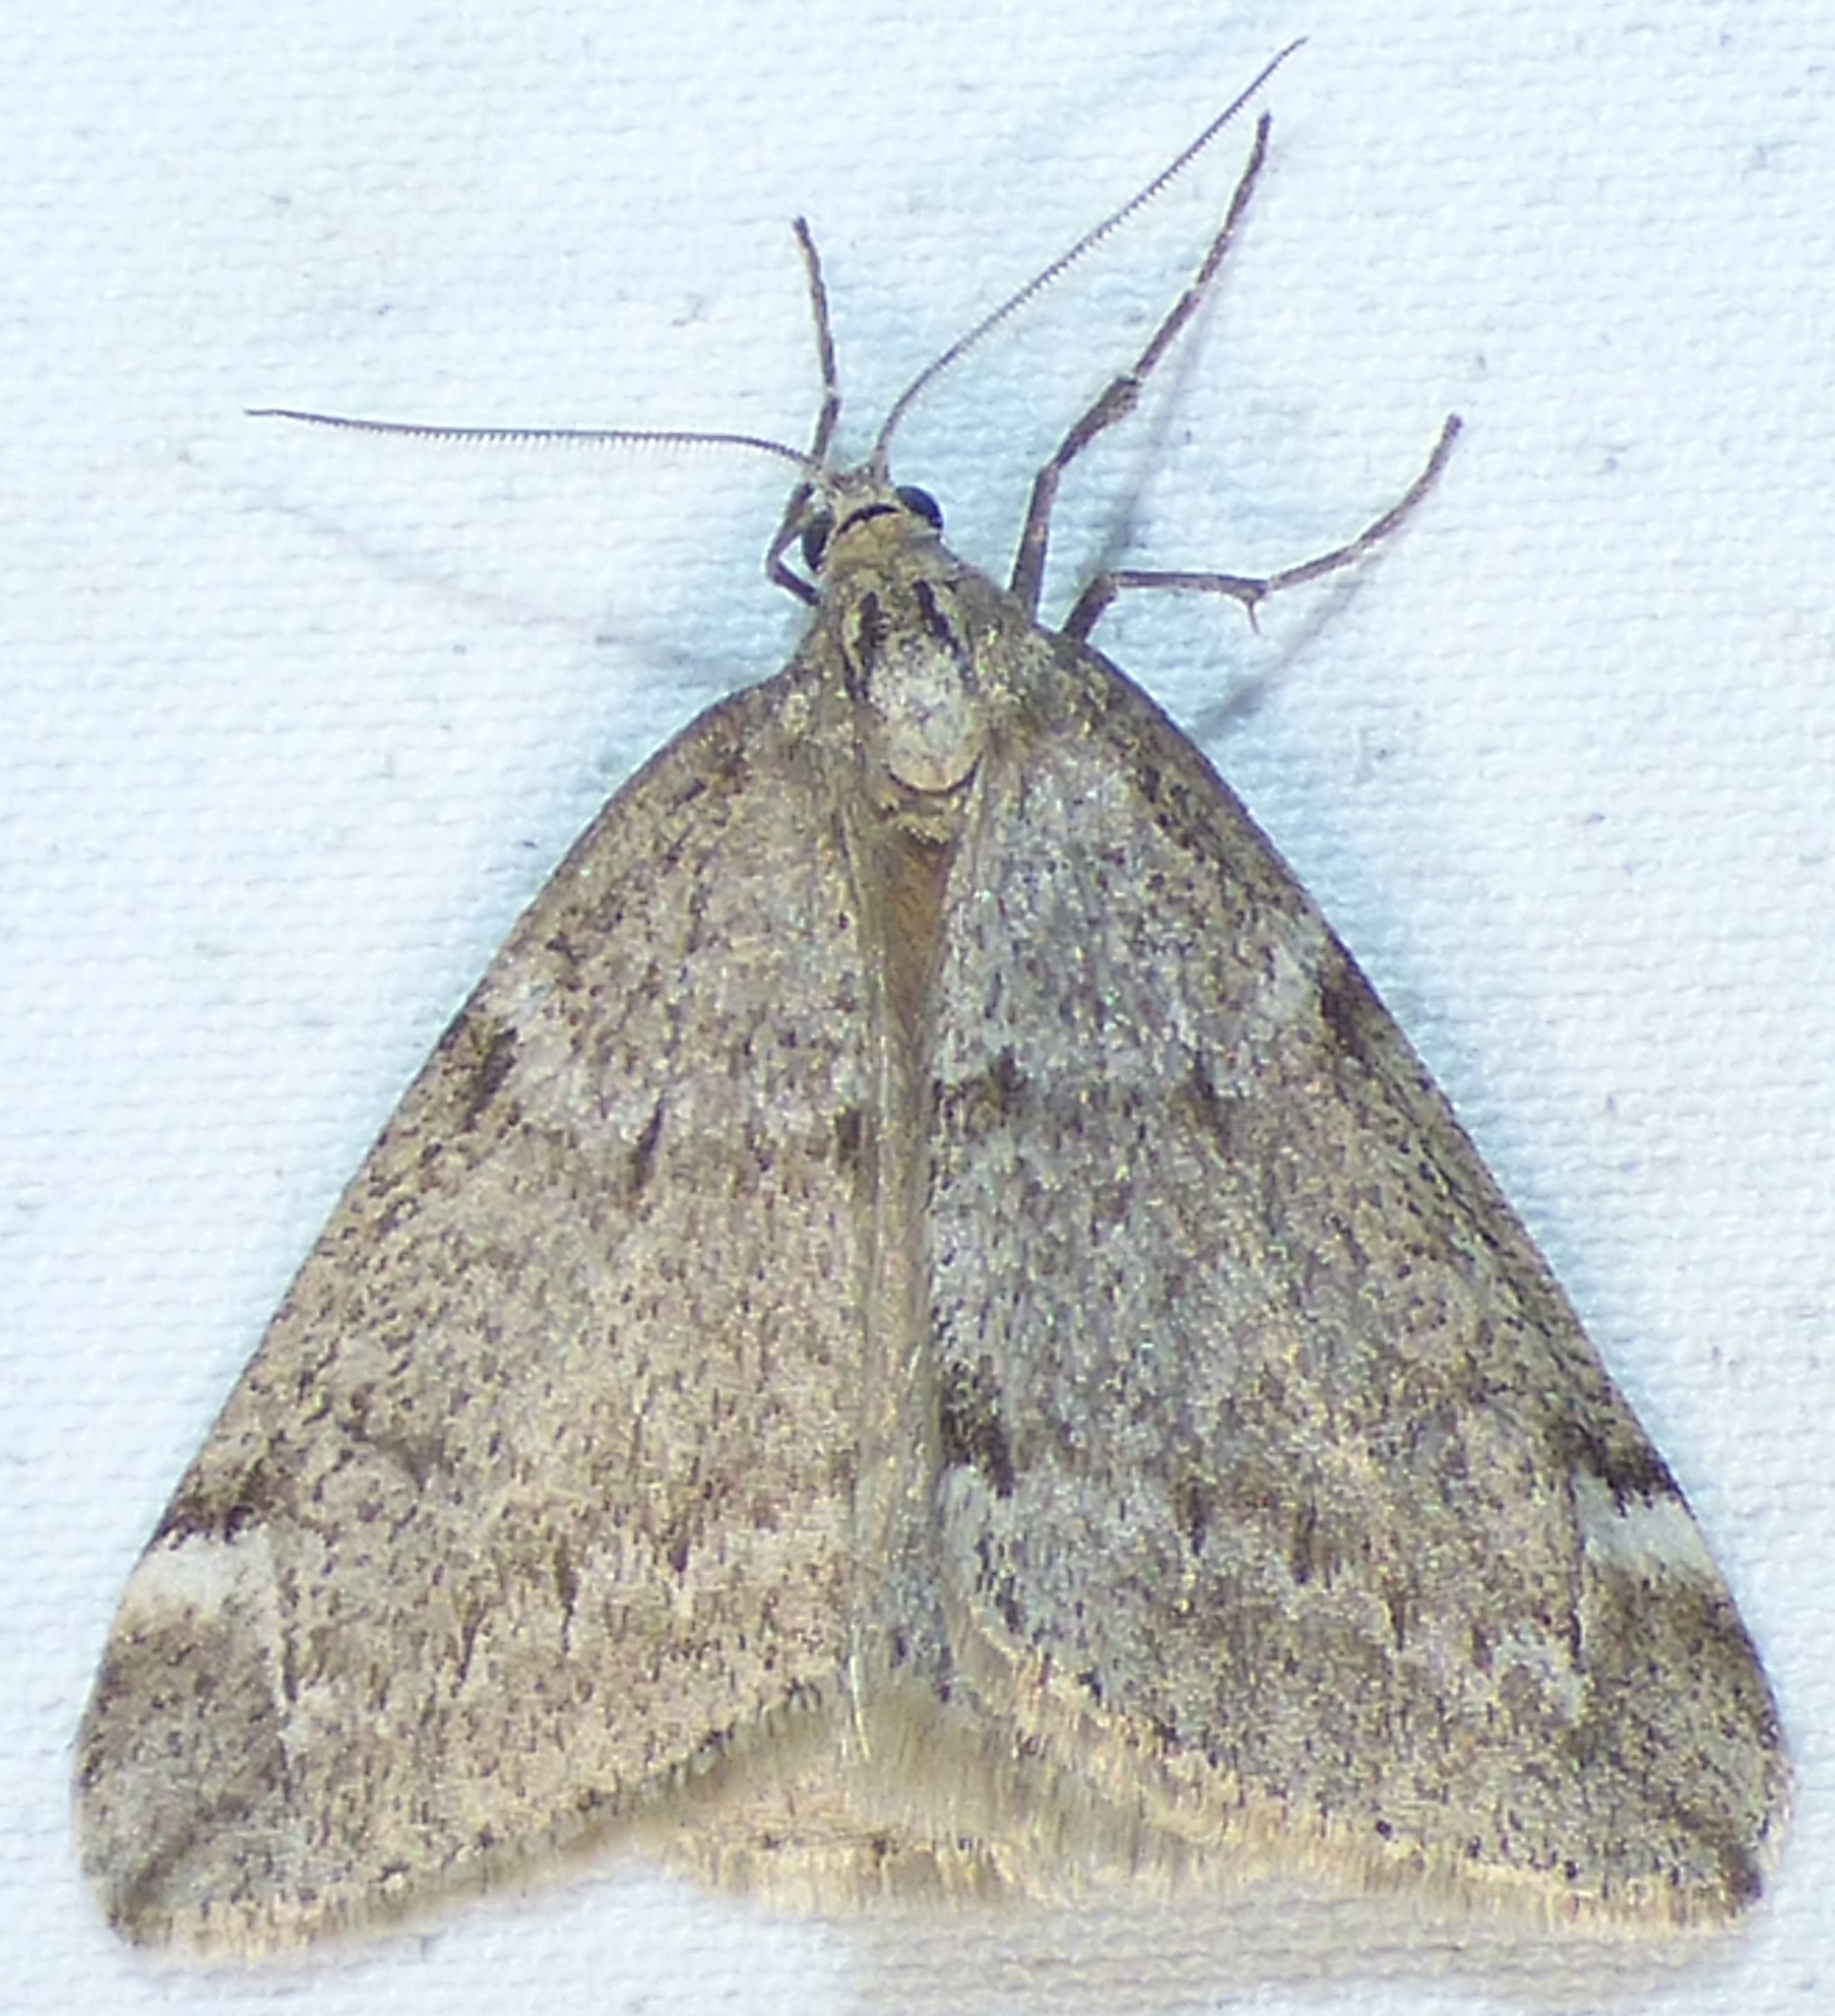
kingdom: Animalia
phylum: Arthropoda
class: Insecta
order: Lepidoptera
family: Geometridae
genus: Alsophila
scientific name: Alsophila pometaria
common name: Fall cankerworm
